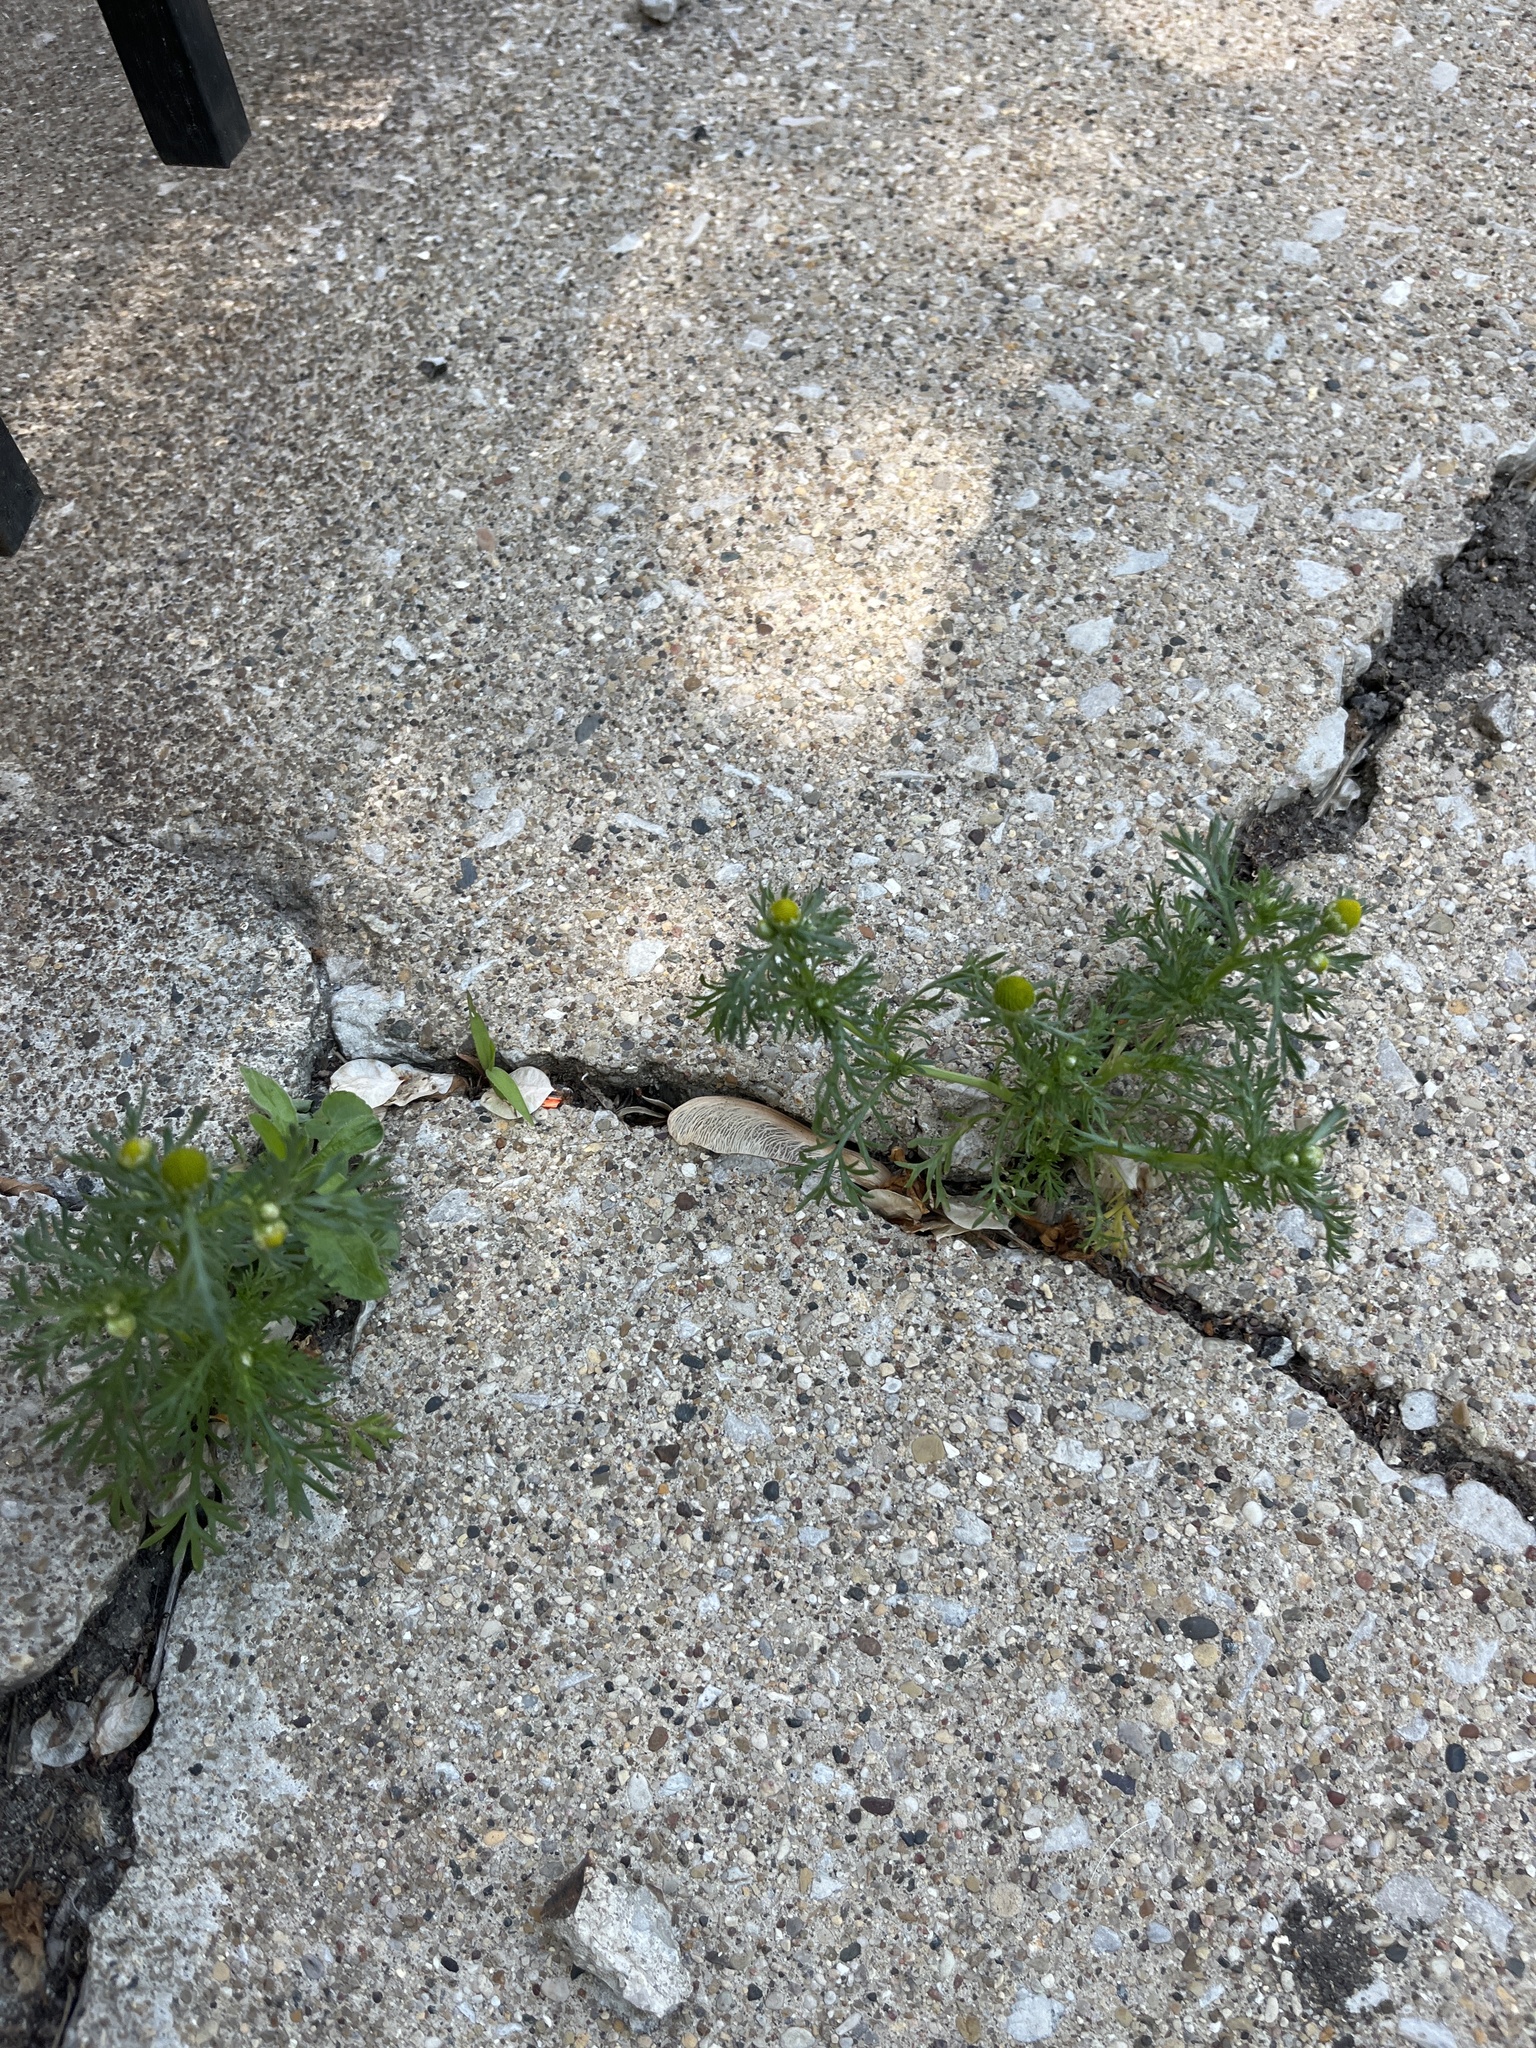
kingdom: Plantae
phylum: Tracheophyta
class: Magnoliopsida
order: Asterales
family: Asteraceae
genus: Matricaria
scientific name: Matricaria discoidea
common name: Disc mayweed
